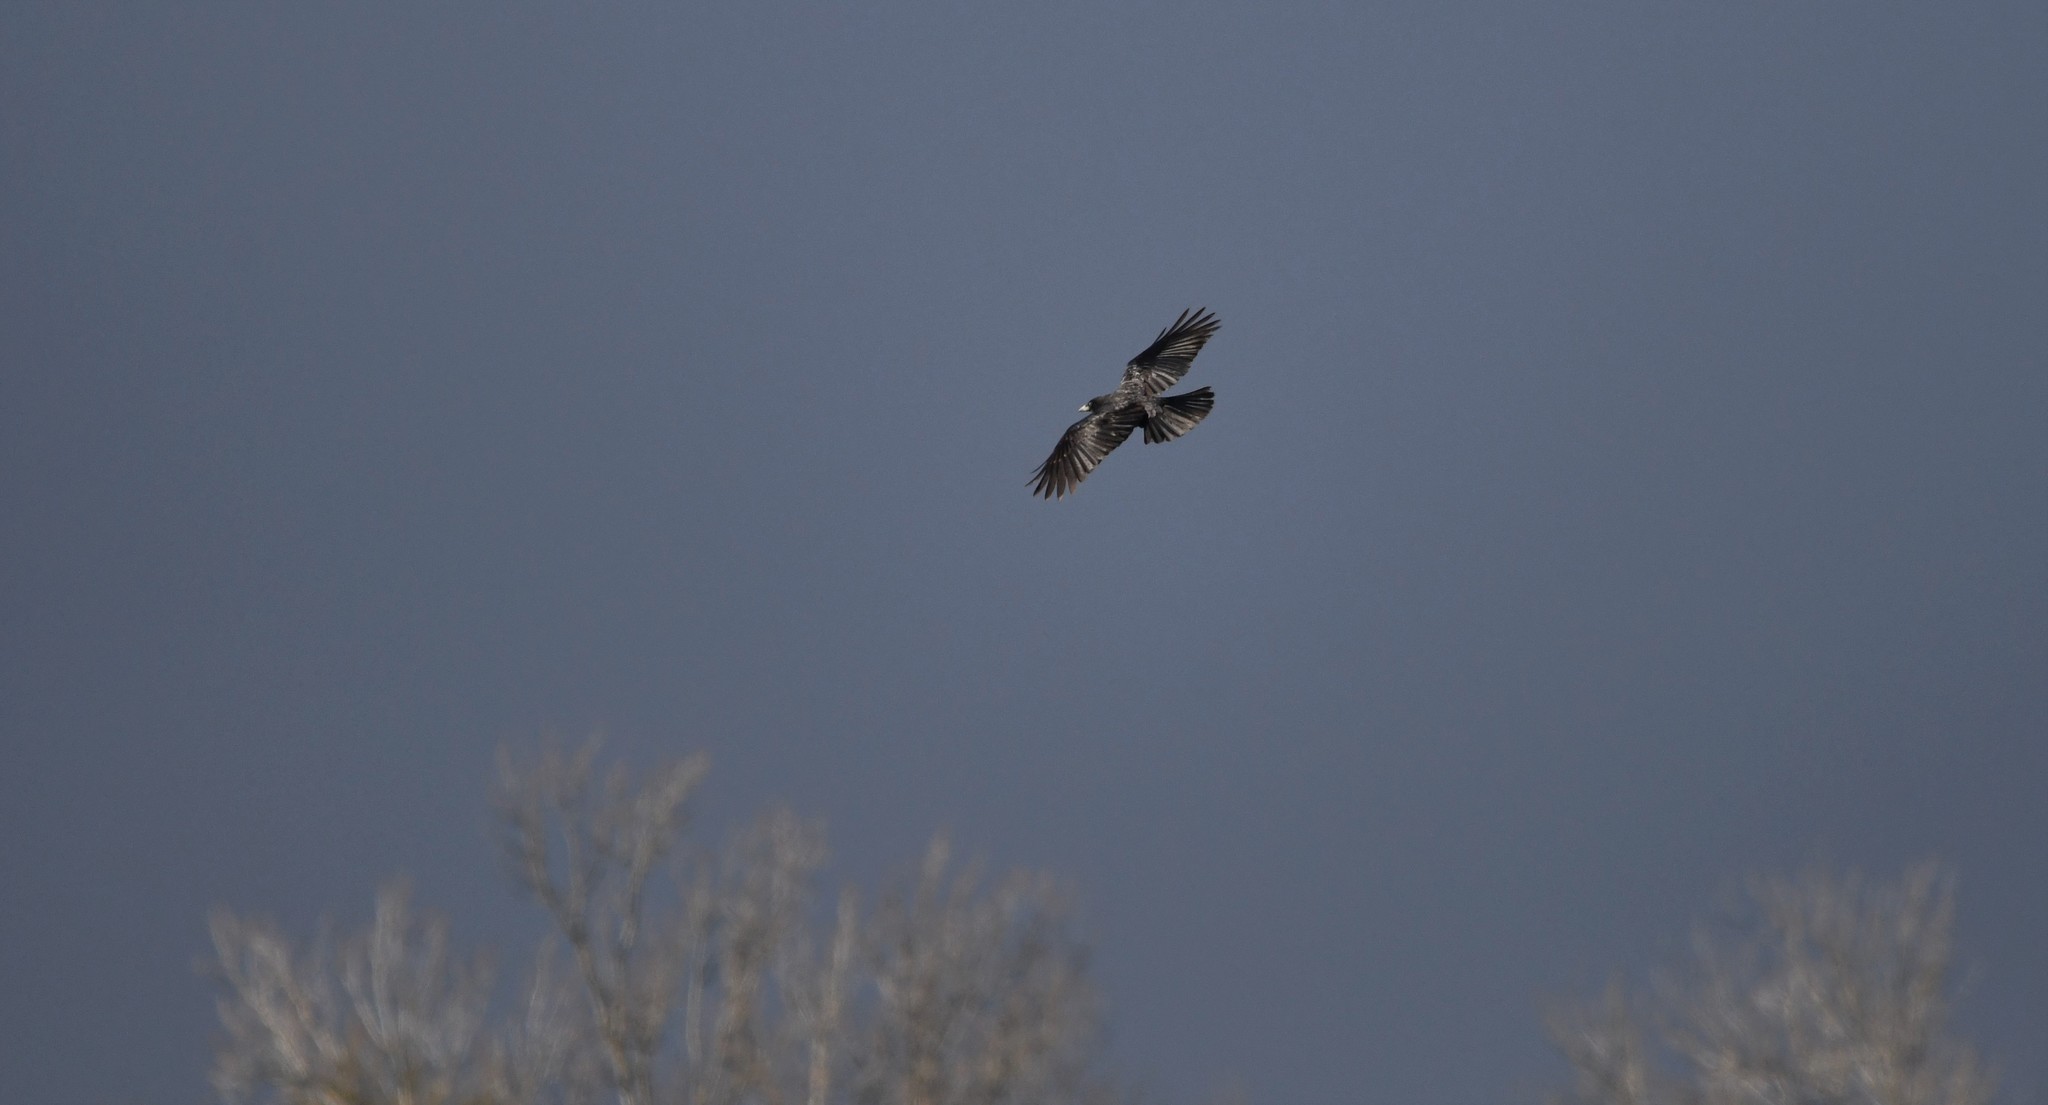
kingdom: Animalia
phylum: Chordata
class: Aves
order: Passeriformes
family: Corvidae
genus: Corvus
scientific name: Corvus corone
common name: Carrion crow
